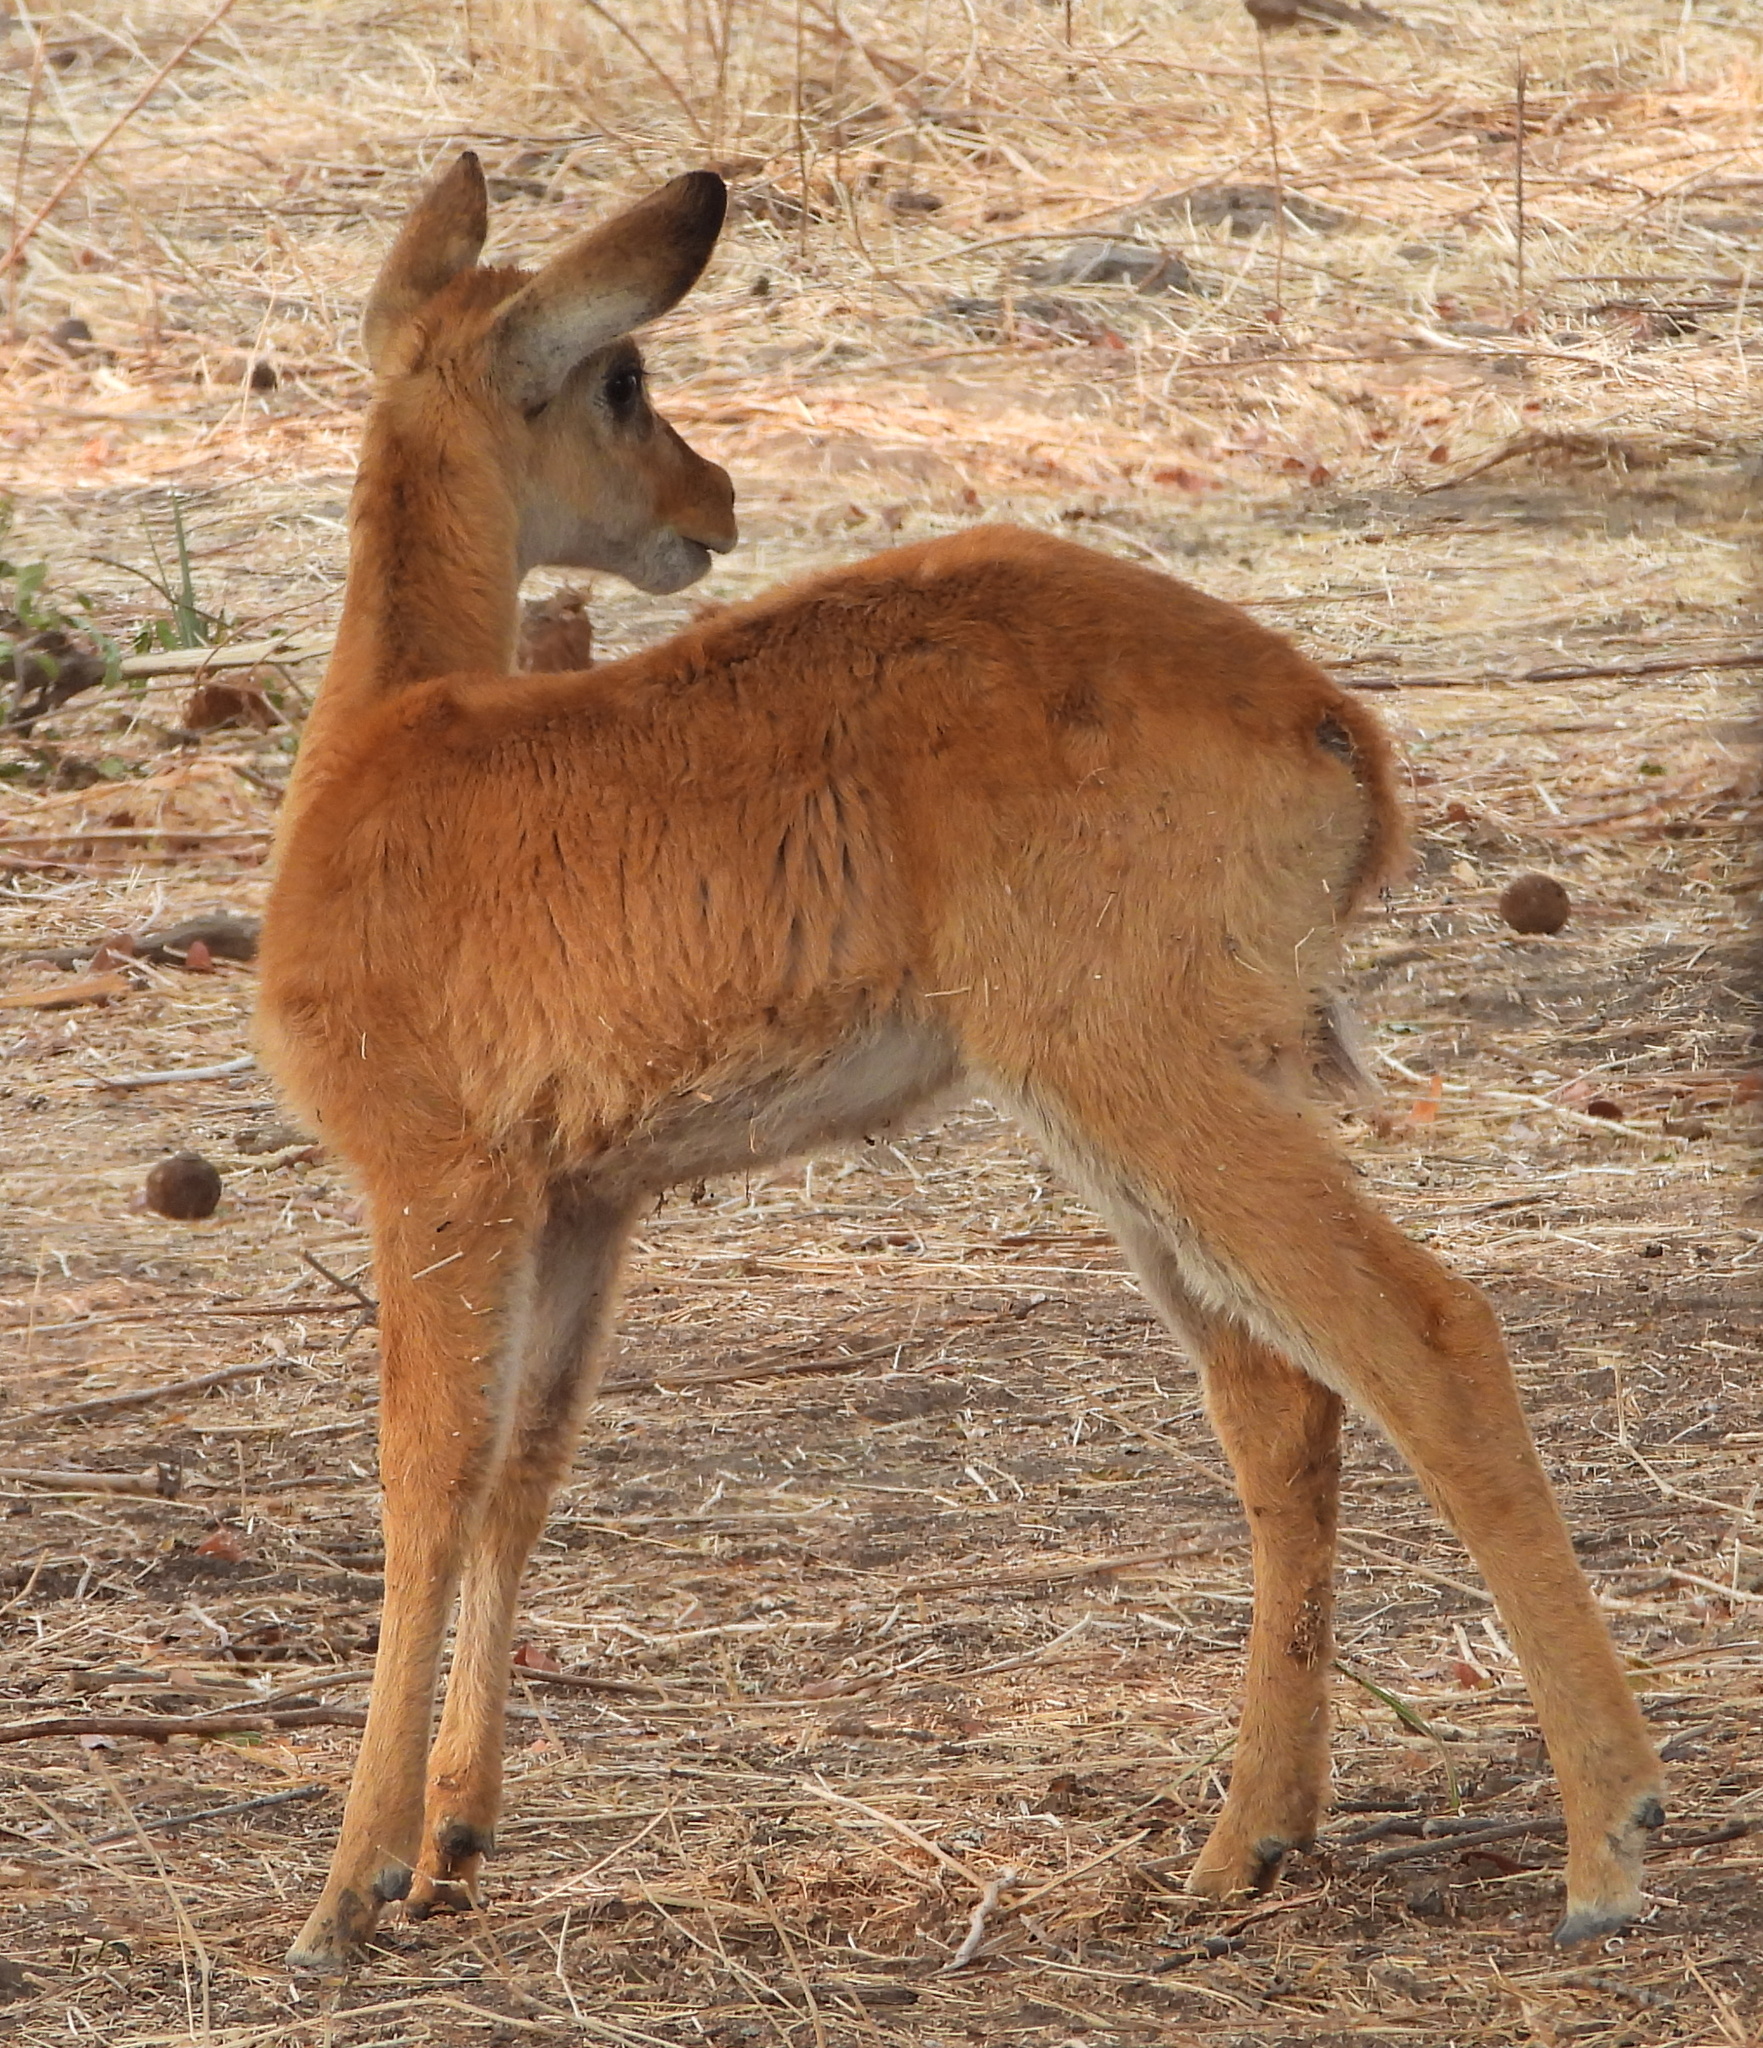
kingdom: Animalia
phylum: Chordata
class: Mammalia
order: Artiodactyla
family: Bovidae
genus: Kobus
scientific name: Kobus vardonii
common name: Puku
